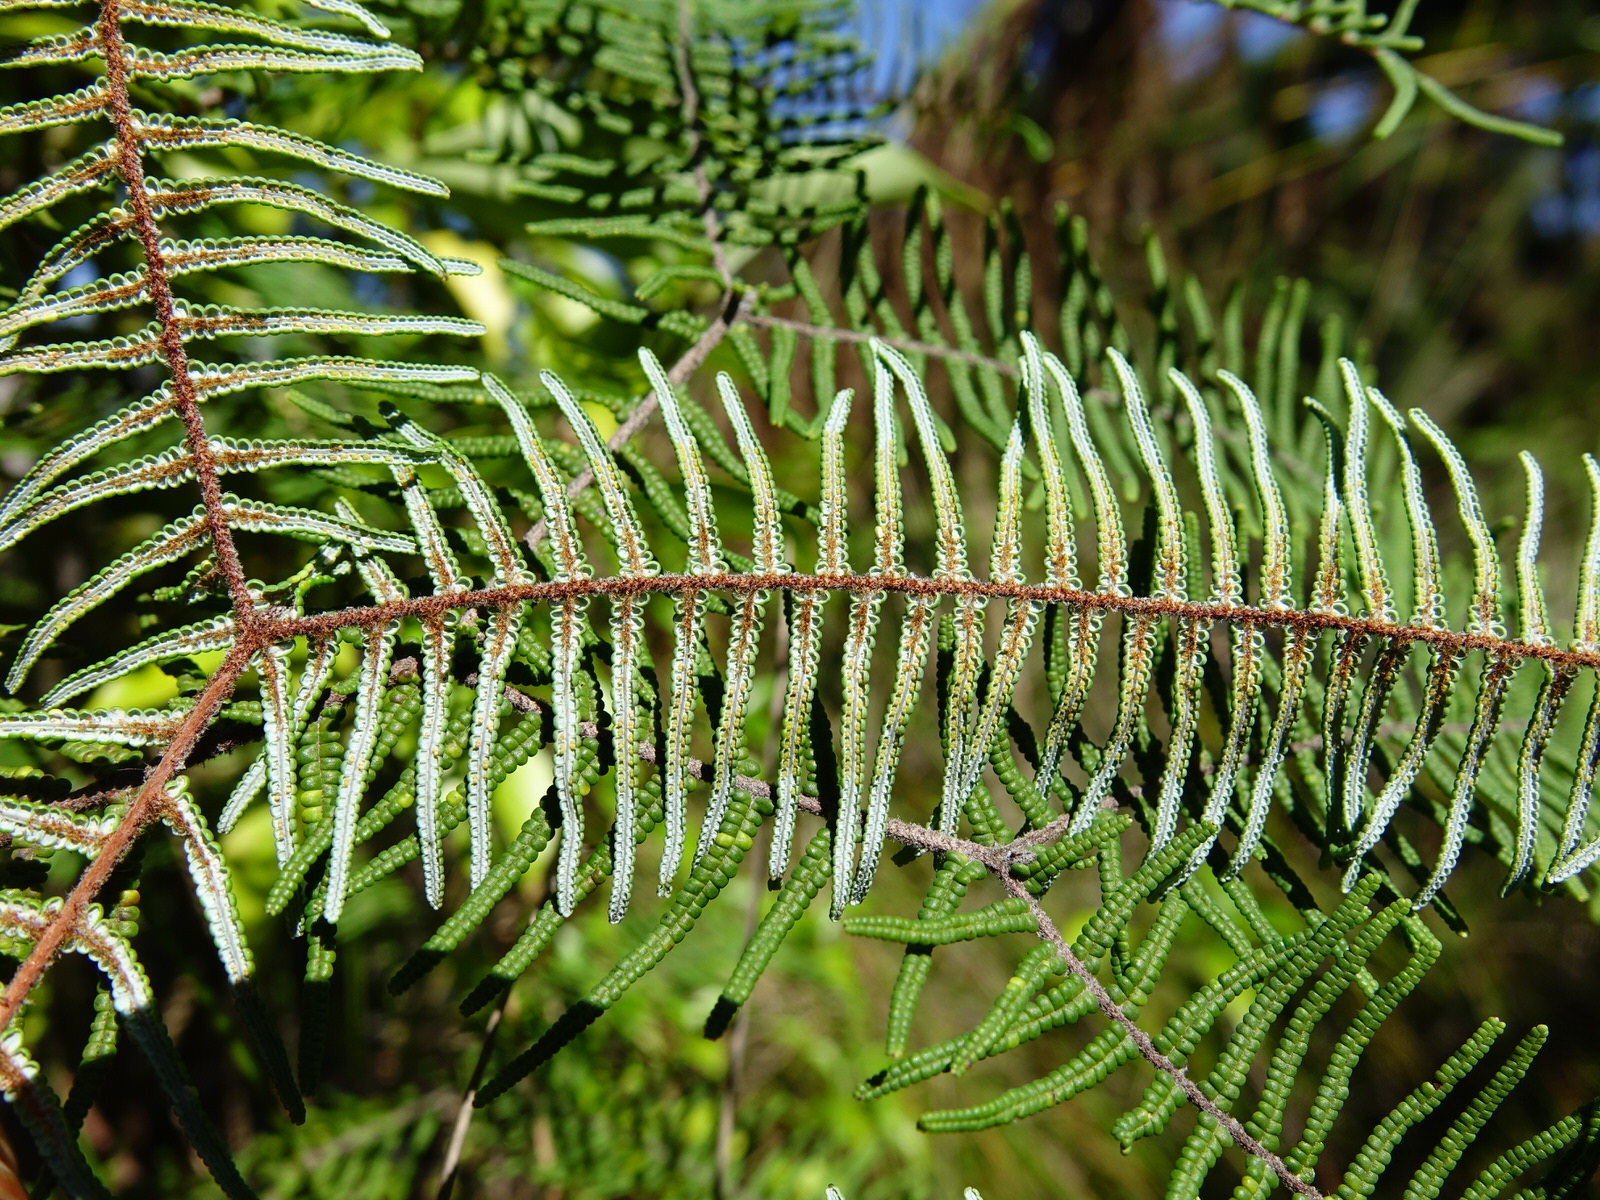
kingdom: Plantae
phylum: Tracheophyta
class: Polypodiopsida
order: Gleicheniales
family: Gleicheniaceae
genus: Gleichenia
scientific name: Gleichenia dicarpa
